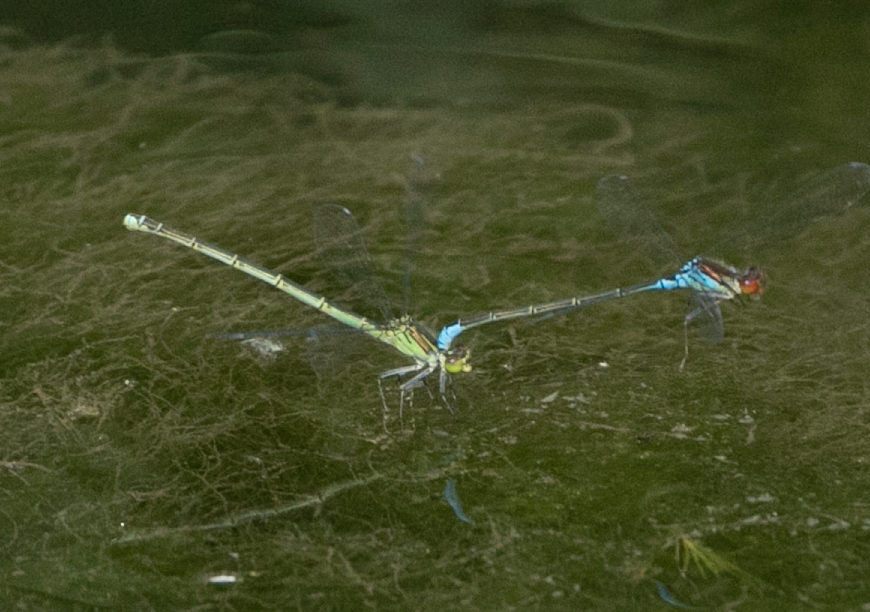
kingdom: Animalia
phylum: Arthropoda
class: Insecta
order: Odonata
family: Coenagrionidae
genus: Erythromma
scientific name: Erythromma viridulum
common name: Small red-eyed damselfly
